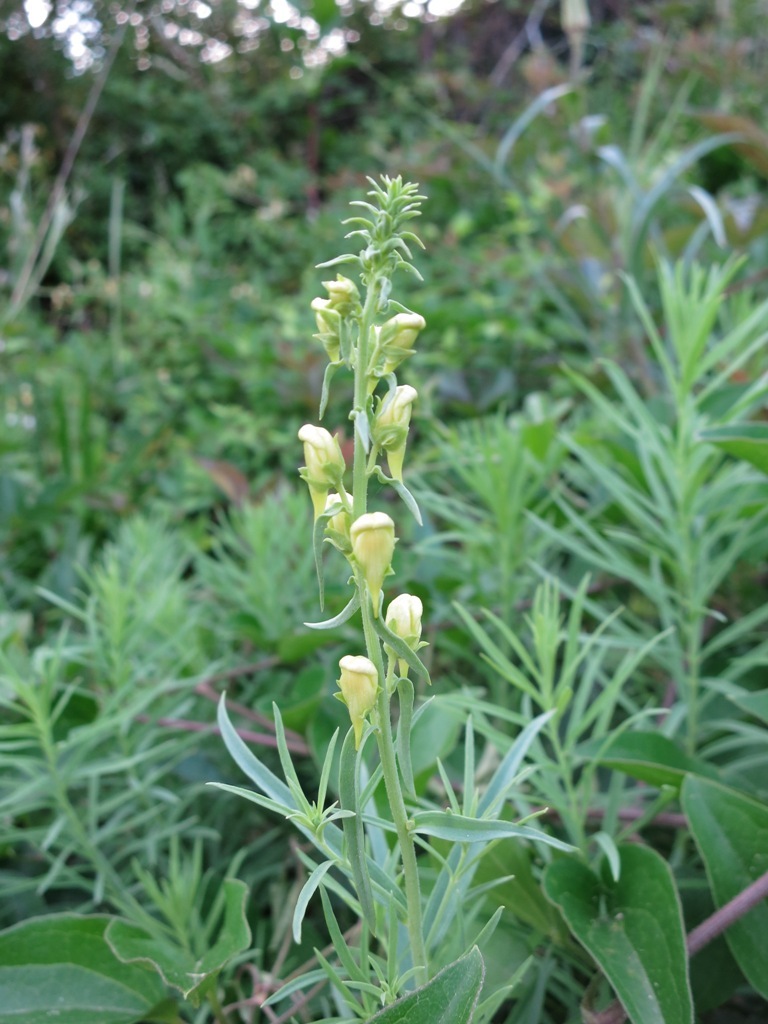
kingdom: Plantae
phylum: Tracheophyta
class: Magnoliopsida
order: Lamiales
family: Plantaginaceae
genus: Linaria
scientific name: Linaria vulgaris
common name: Butter and eggs
